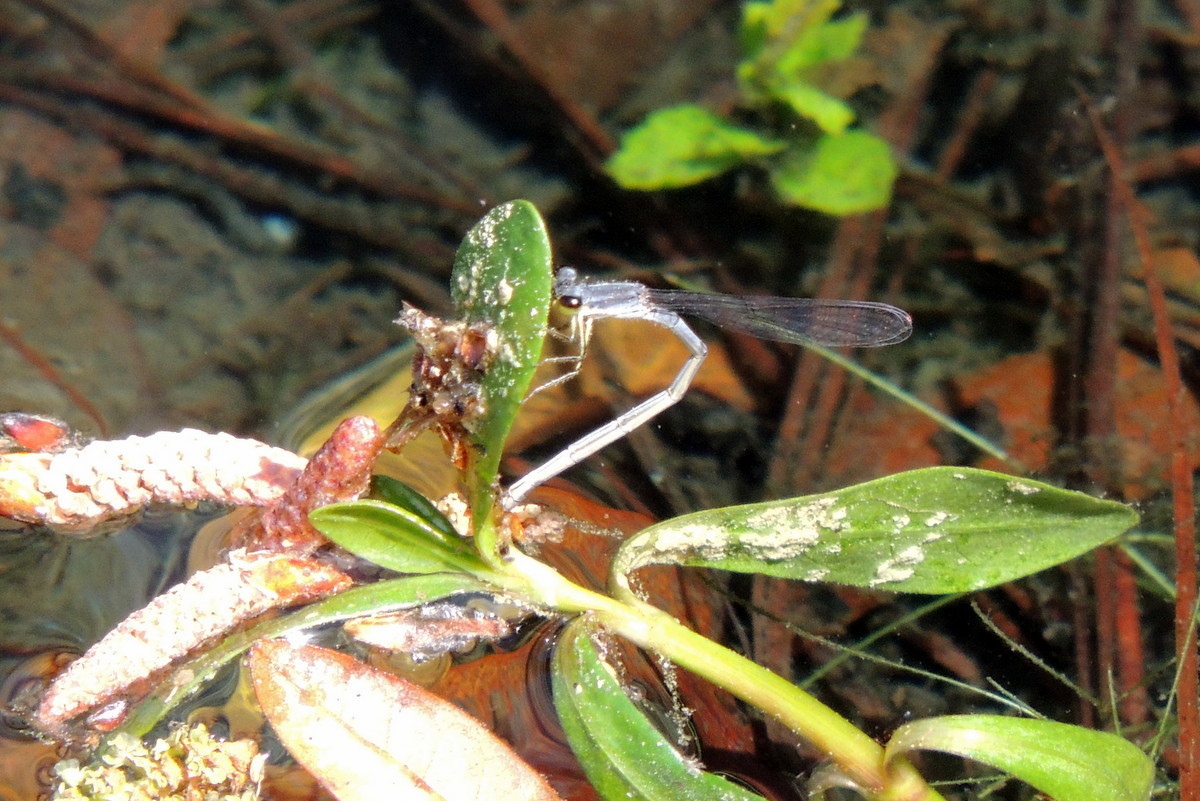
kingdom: Animalia
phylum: Arthropoda
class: Insecta
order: Odonata
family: Coenagrionidae
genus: Ischnura
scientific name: Ischnura posita
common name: Fragile forktail
